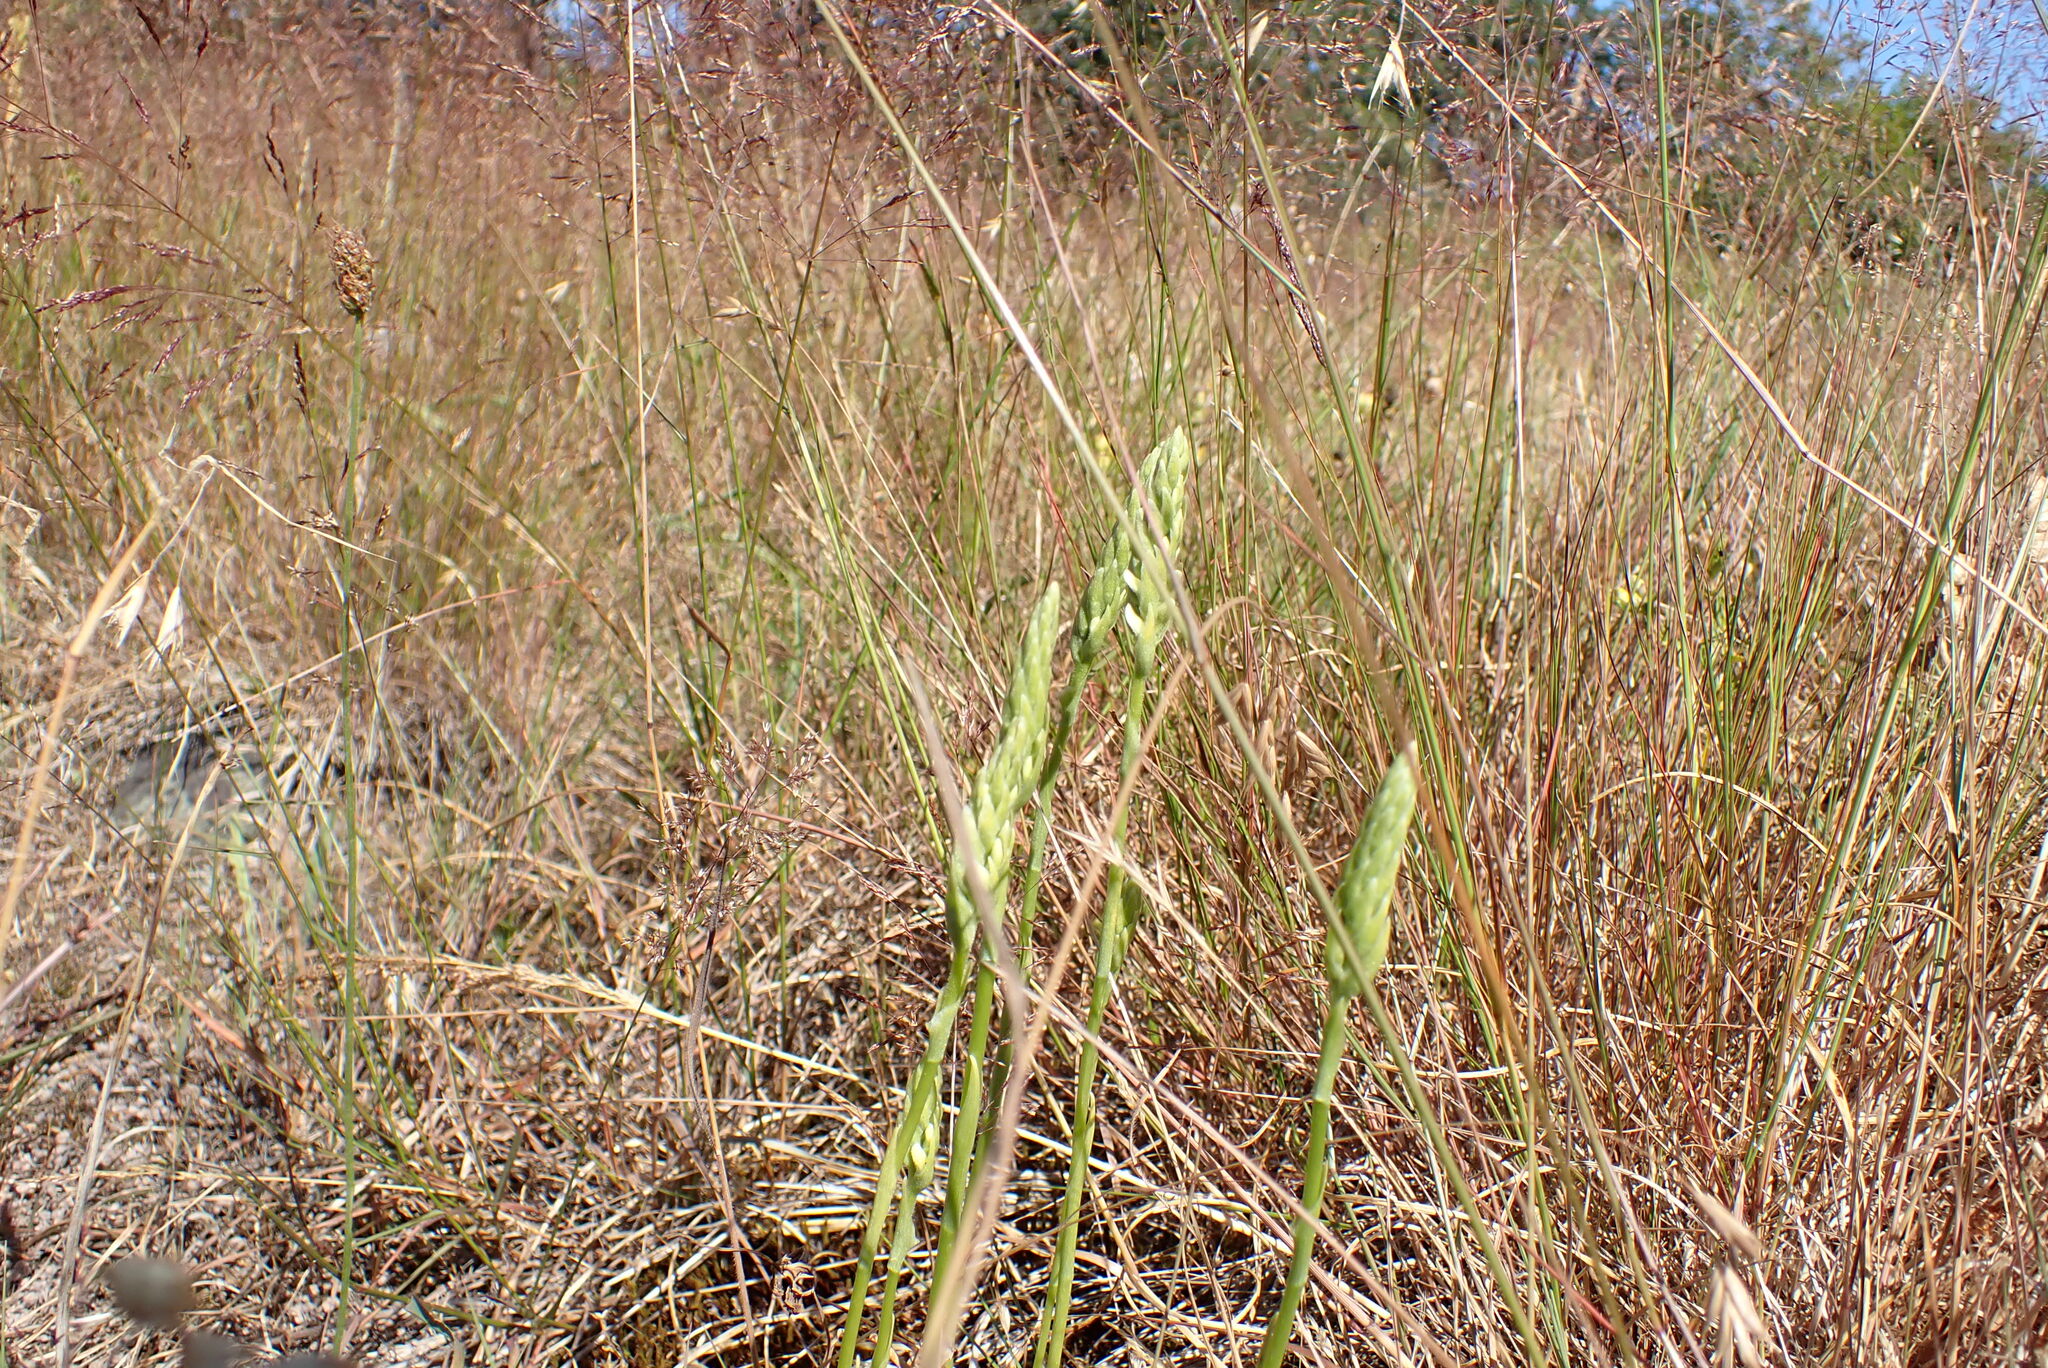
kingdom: Plantae
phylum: Tracheophyta
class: Liliopsida
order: Asparagales
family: Orchidaceae
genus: Spiranthes
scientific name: Spiranthes romanzoffiana
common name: Irish lady's-tresses
